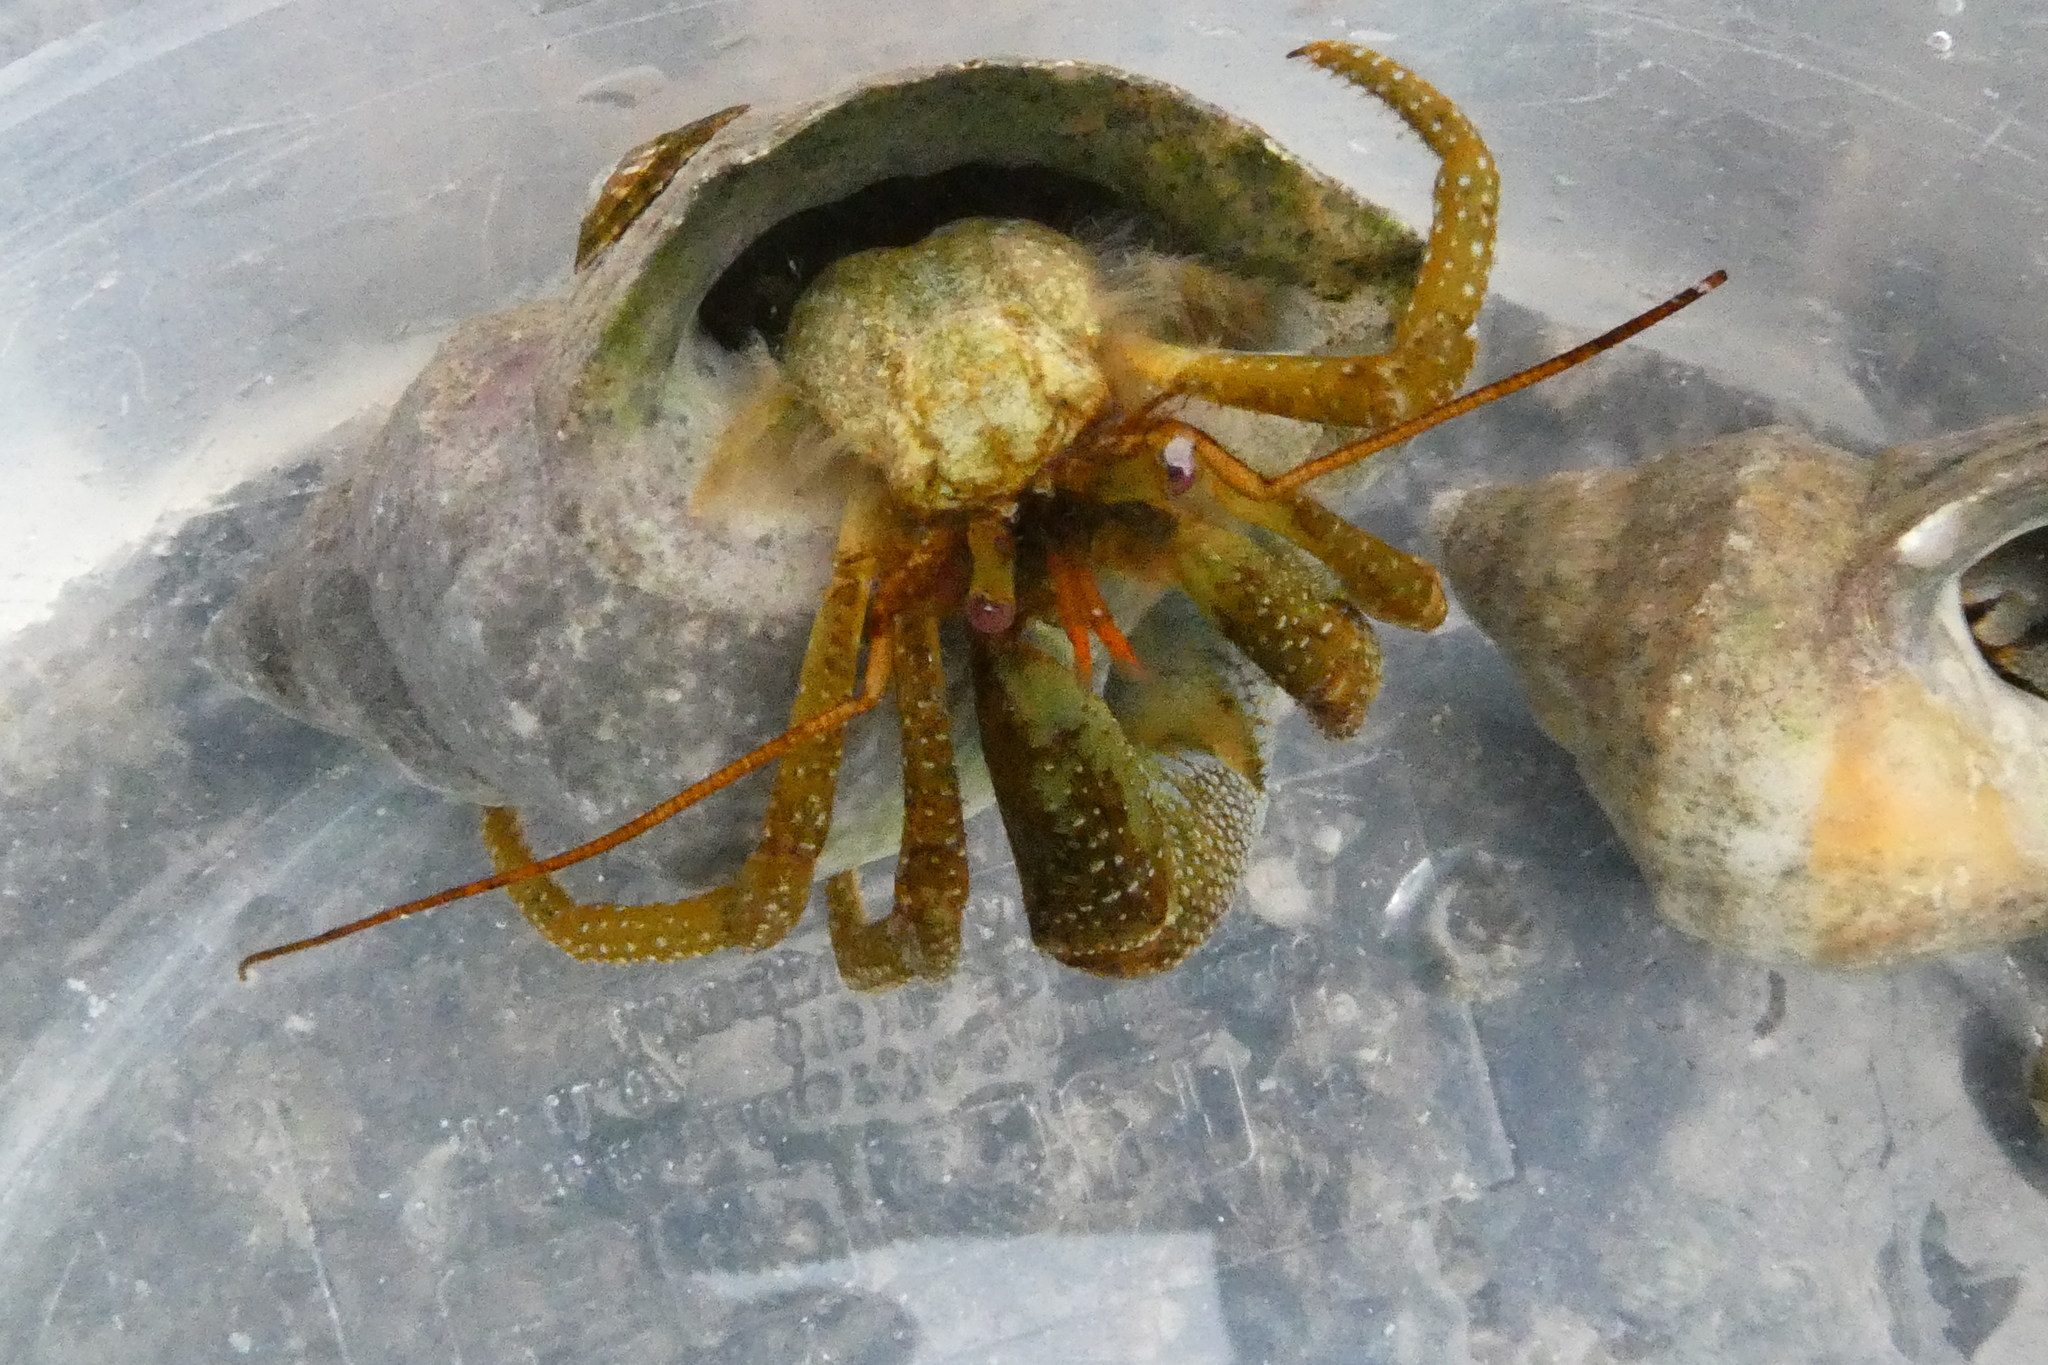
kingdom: Animalia
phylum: Arthropoda
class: Malacostraca
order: Decapoda
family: Paguridae
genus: Pagurus
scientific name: Pagurus granosimanus
